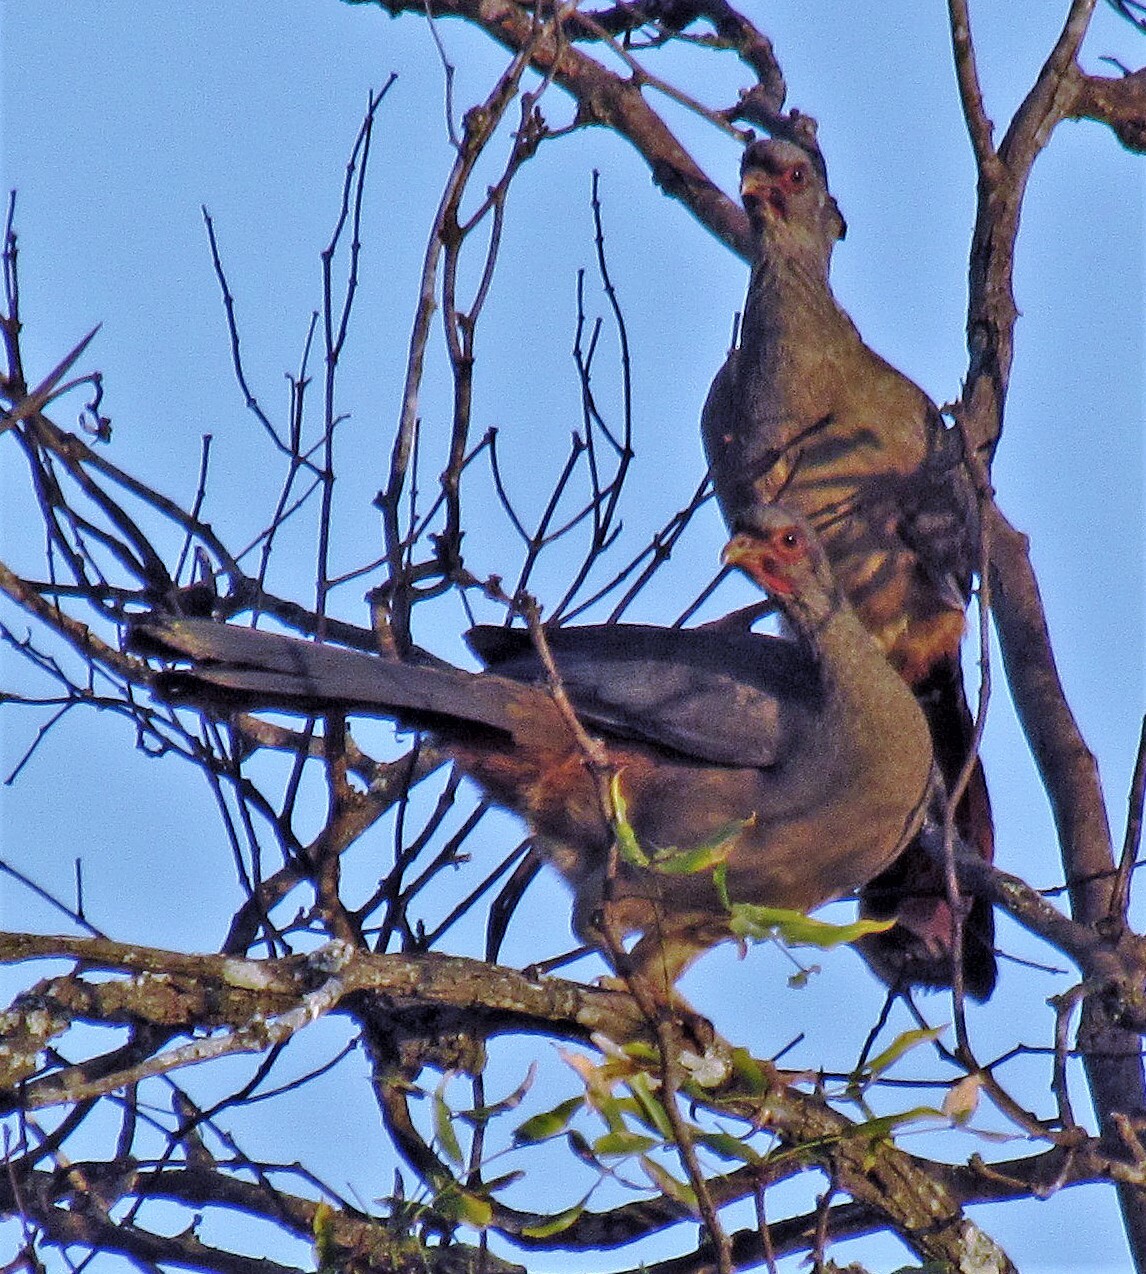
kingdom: Animalia
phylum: Chordata
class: Aves
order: Galliformes
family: Cracidae
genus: Ortalis
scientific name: Ortalis canicollis
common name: Chaco chachalaca
